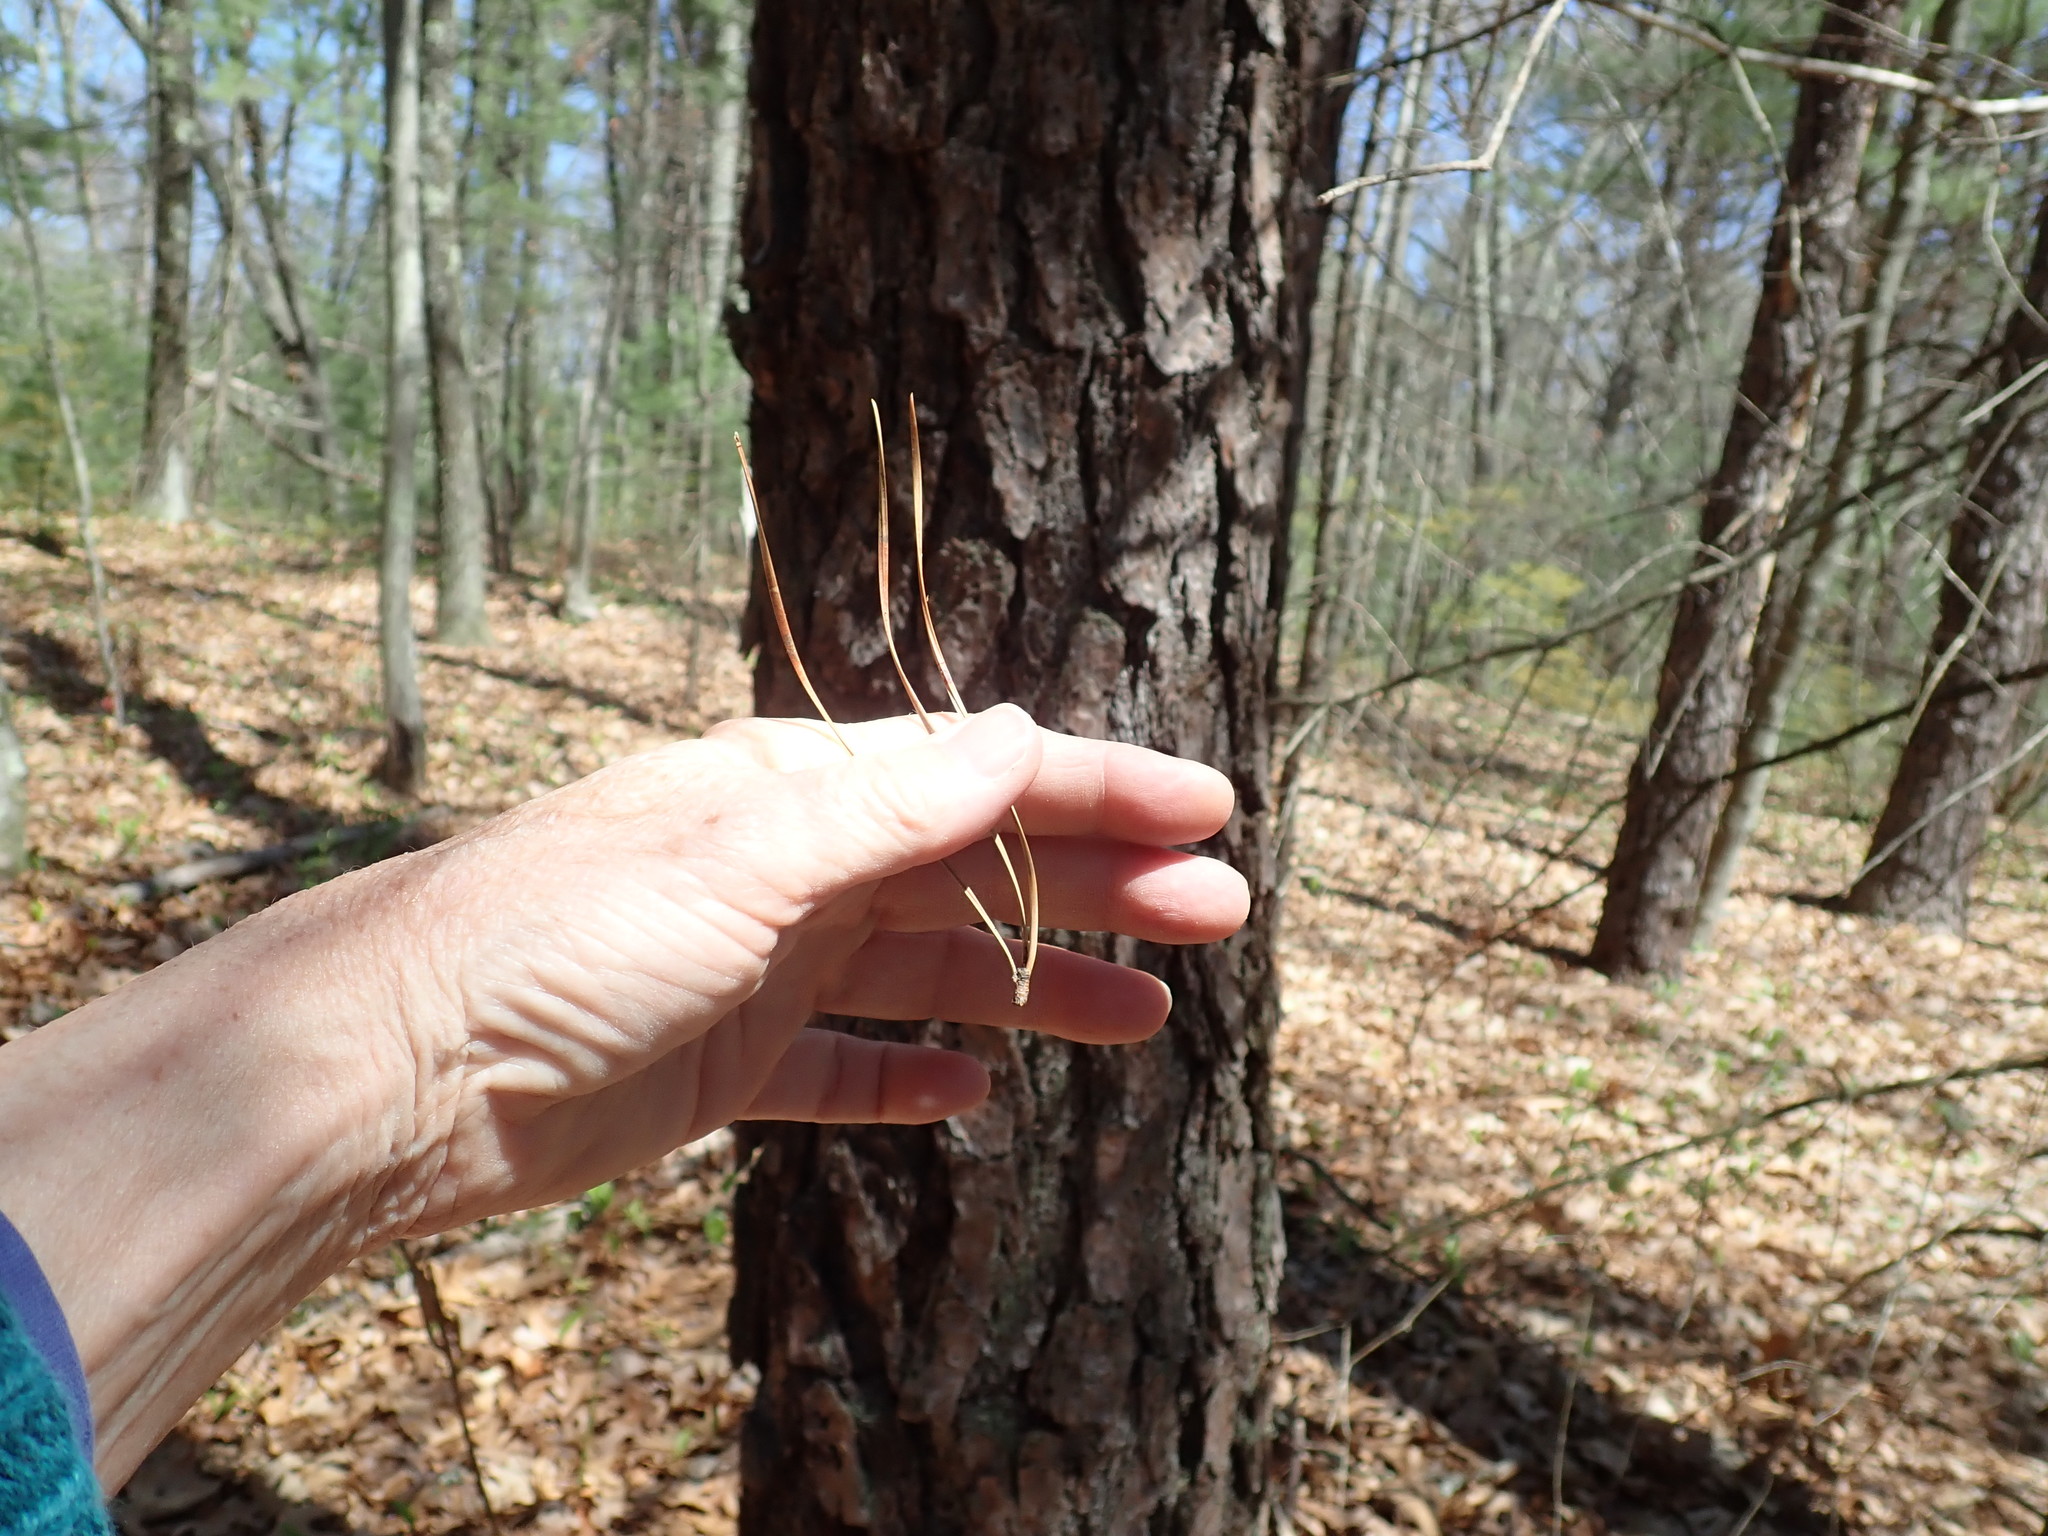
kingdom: Plantae
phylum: Tracheophyta
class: Pinopsida
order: Pinales
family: Pinaceae
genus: Pinus
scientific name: Pinus rigida
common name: Pitch pine
